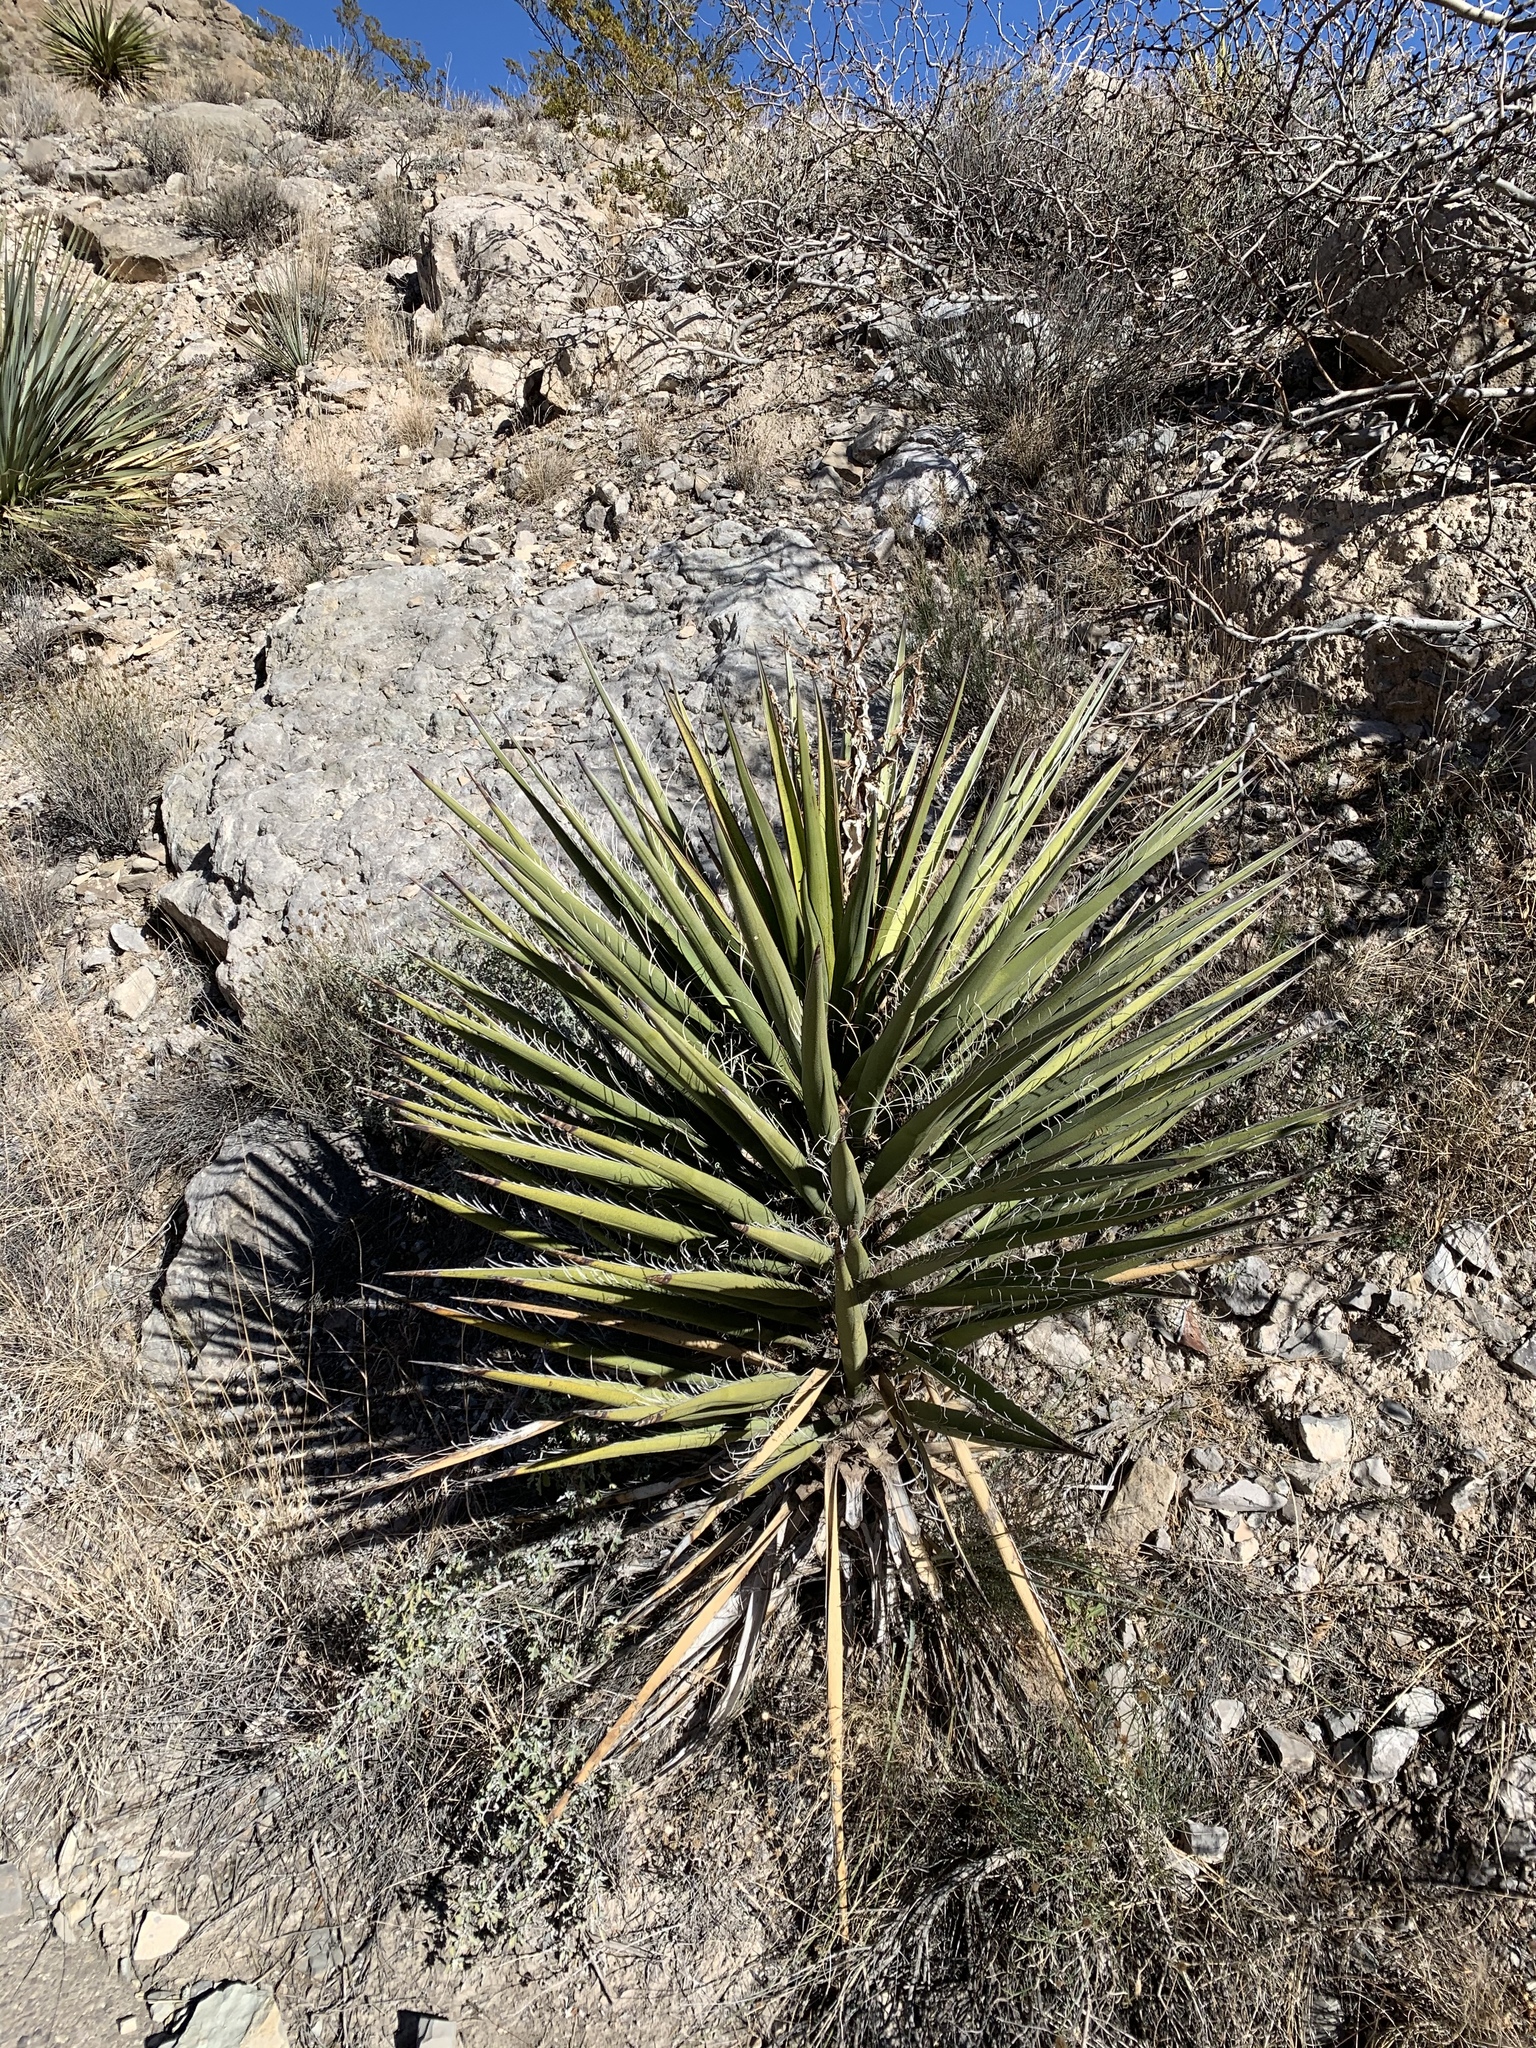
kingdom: Plantae
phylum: Tracheophyta
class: Liliopsida
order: Asparagales
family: Asparagaceae
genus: Yucca
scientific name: Yucca treculiana
